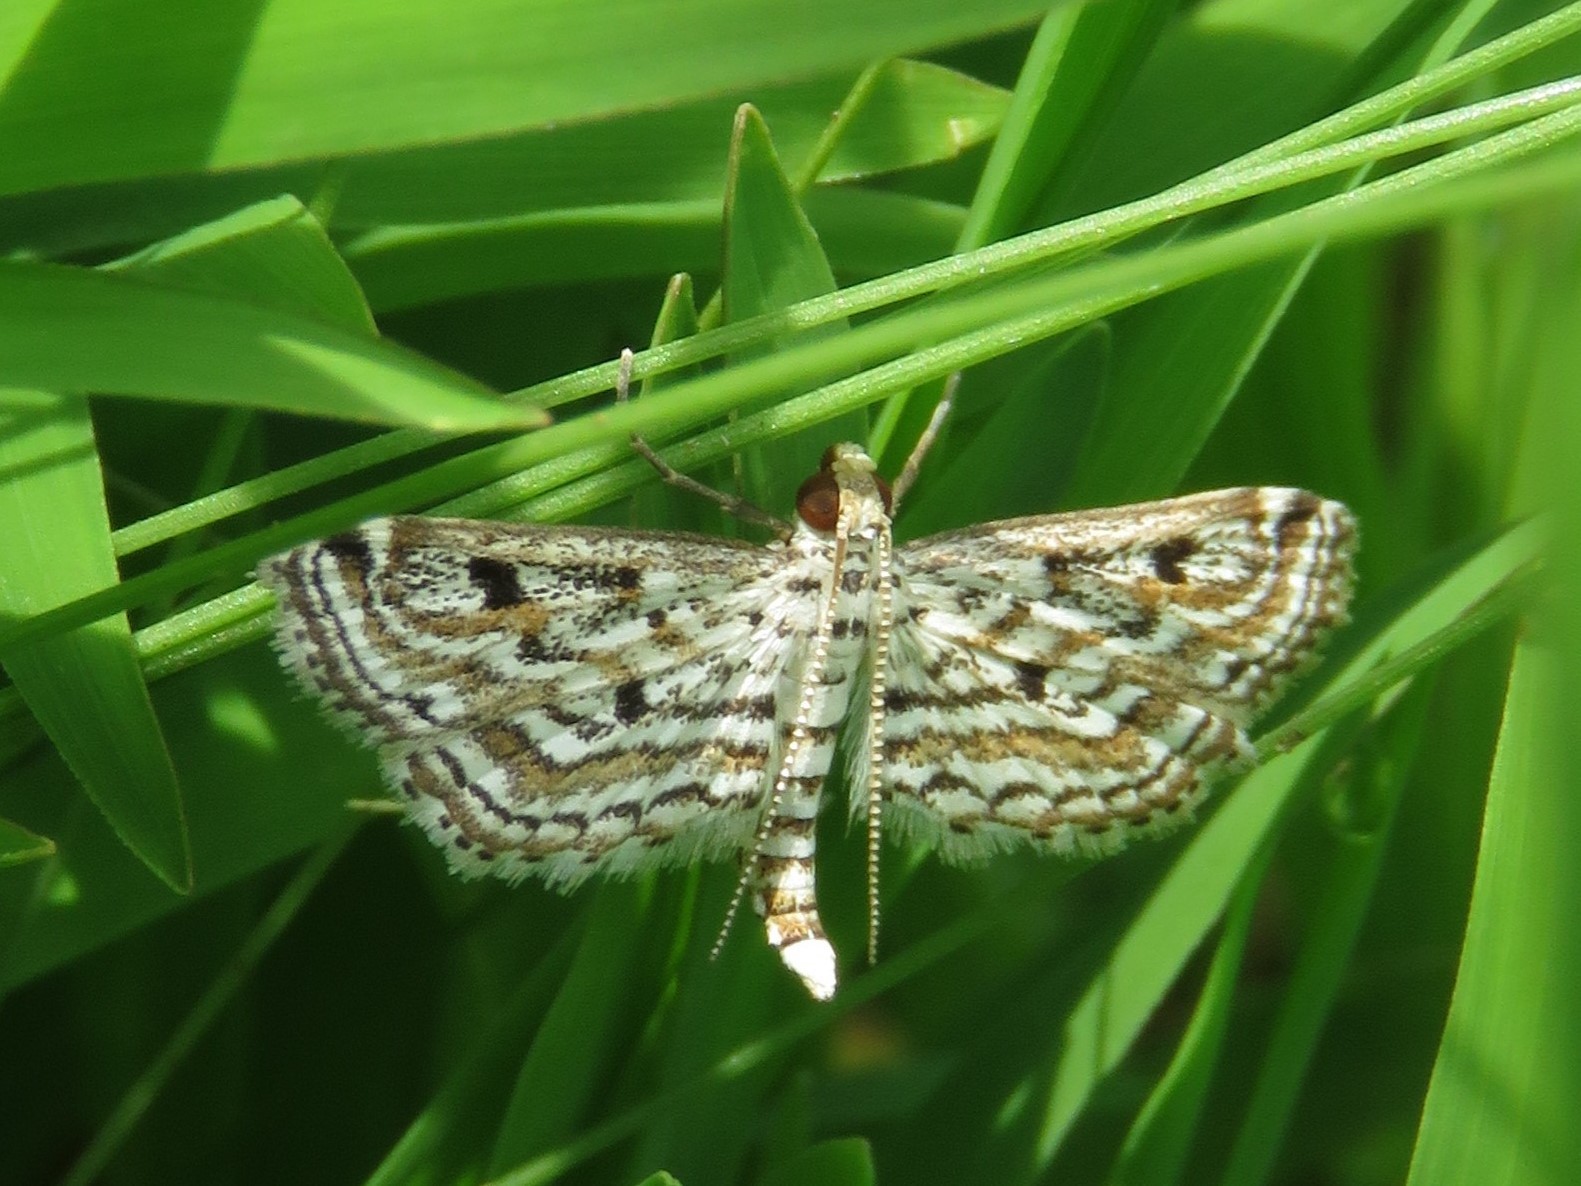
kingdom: Animalia
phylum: Arthropoda
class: Insecta
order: Lepidoptera
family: Crambidae
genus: Parapoynx
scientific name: Parapoynx allionealis
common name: Bladderwort casemaker
